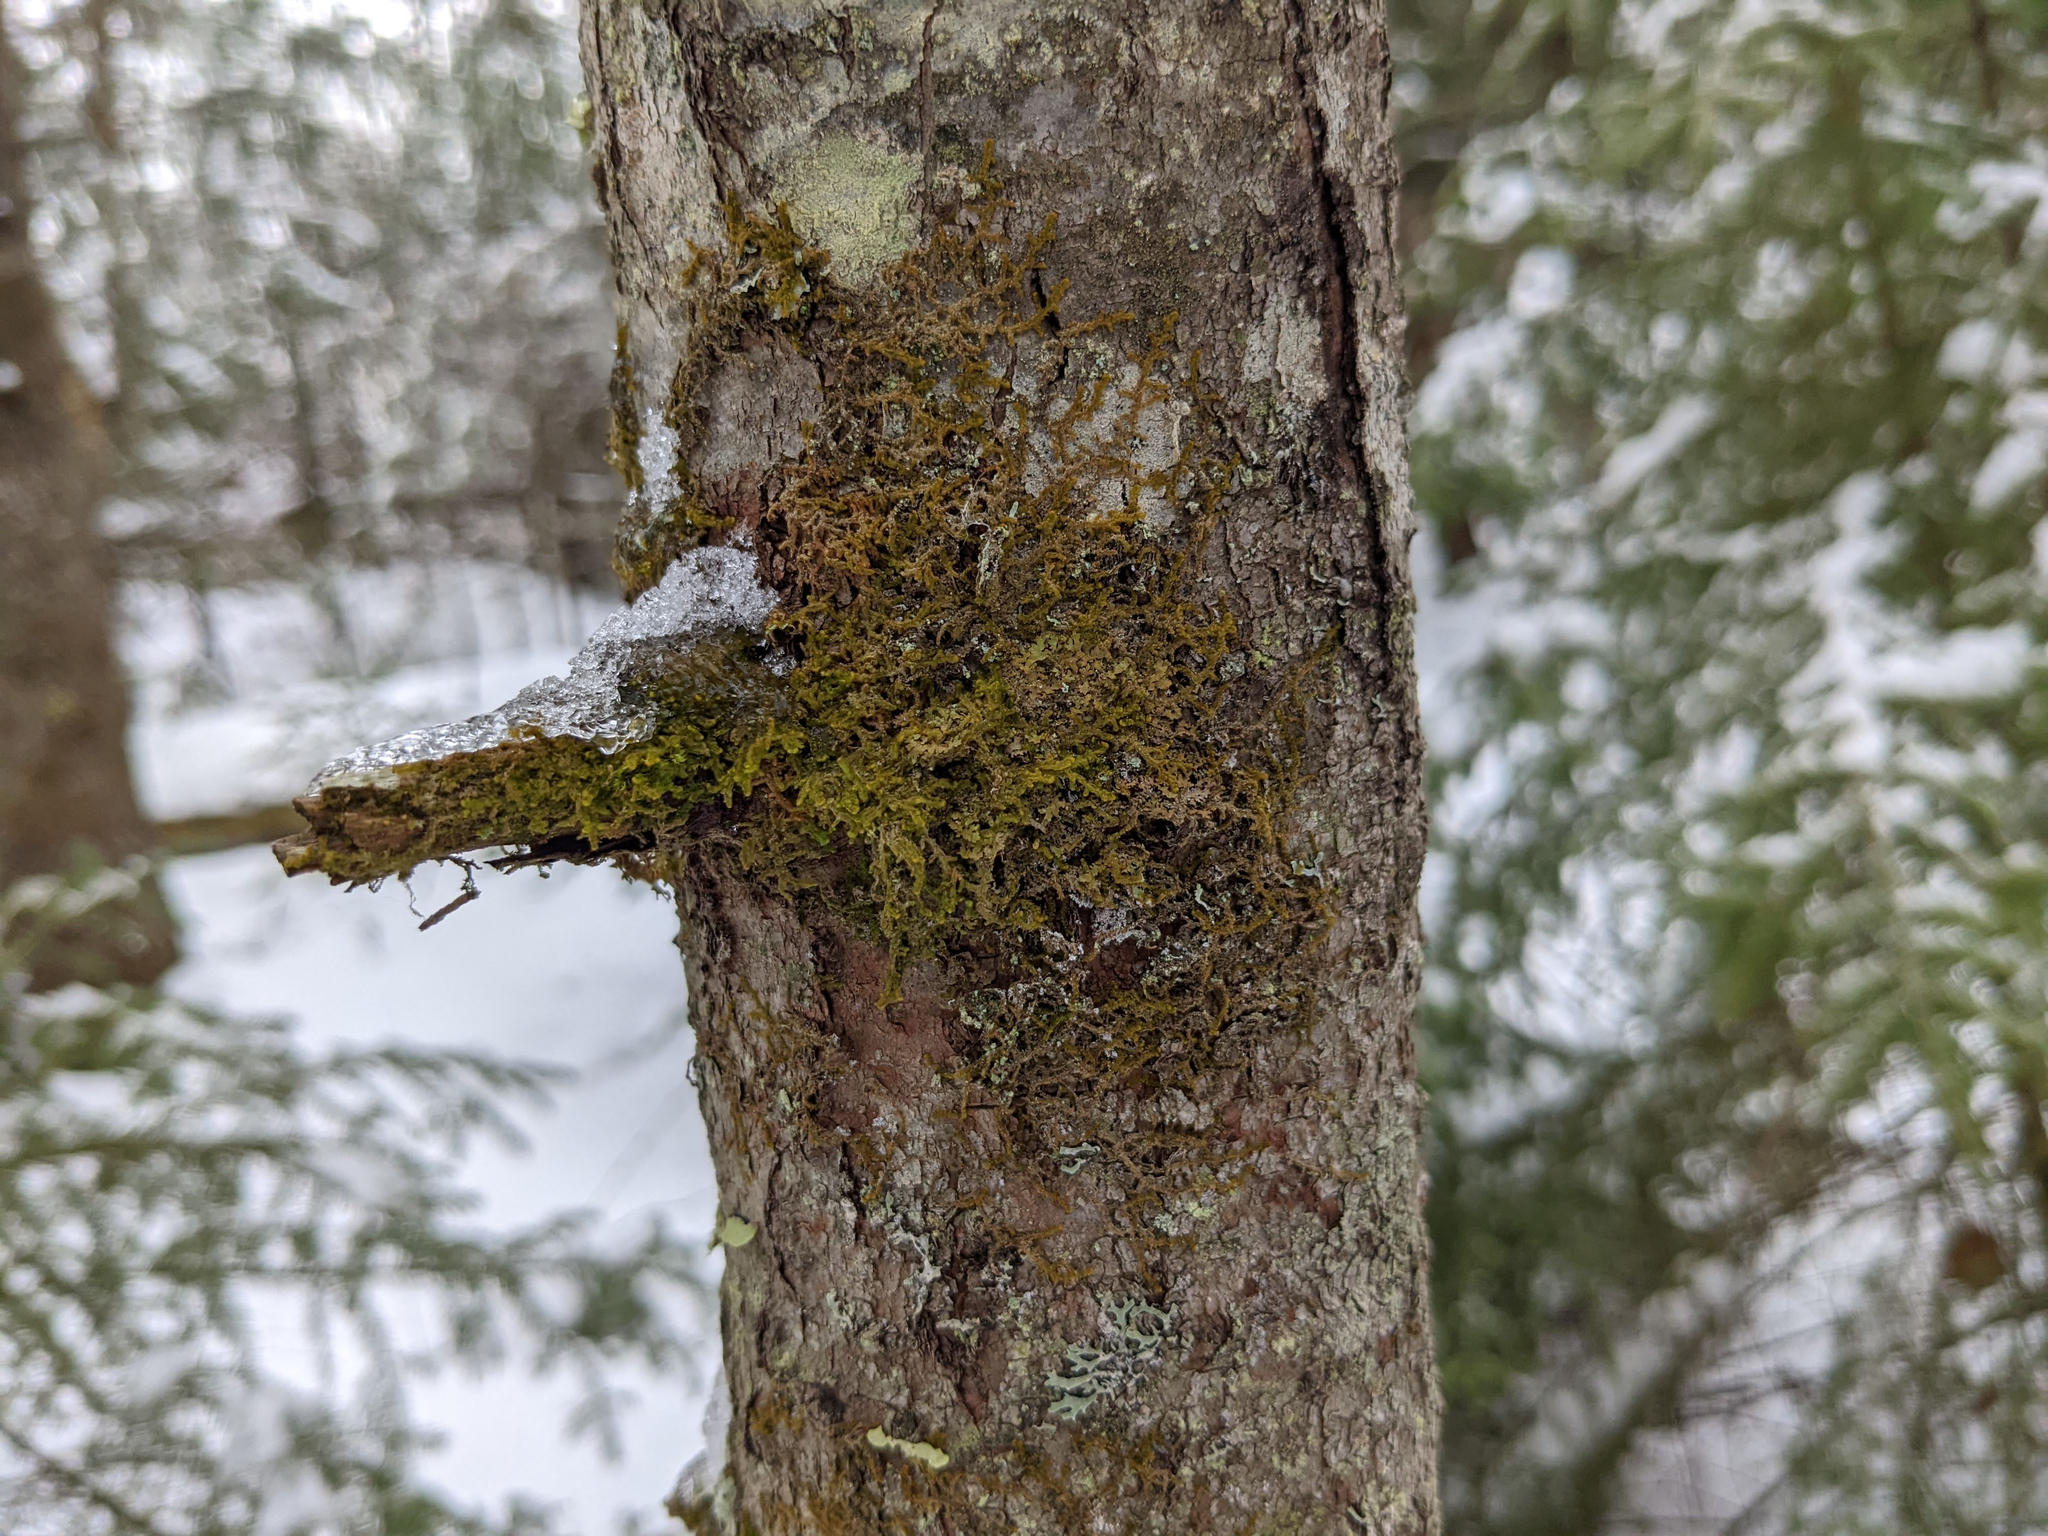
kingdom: Plantae
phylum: Marchantiophyta
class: Jungermanniopsida
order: Ptilidiales
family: Ptilidiaceae
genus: Ptilidium
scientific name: Ptilidium pulcherrimum
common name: Tree fringewort
